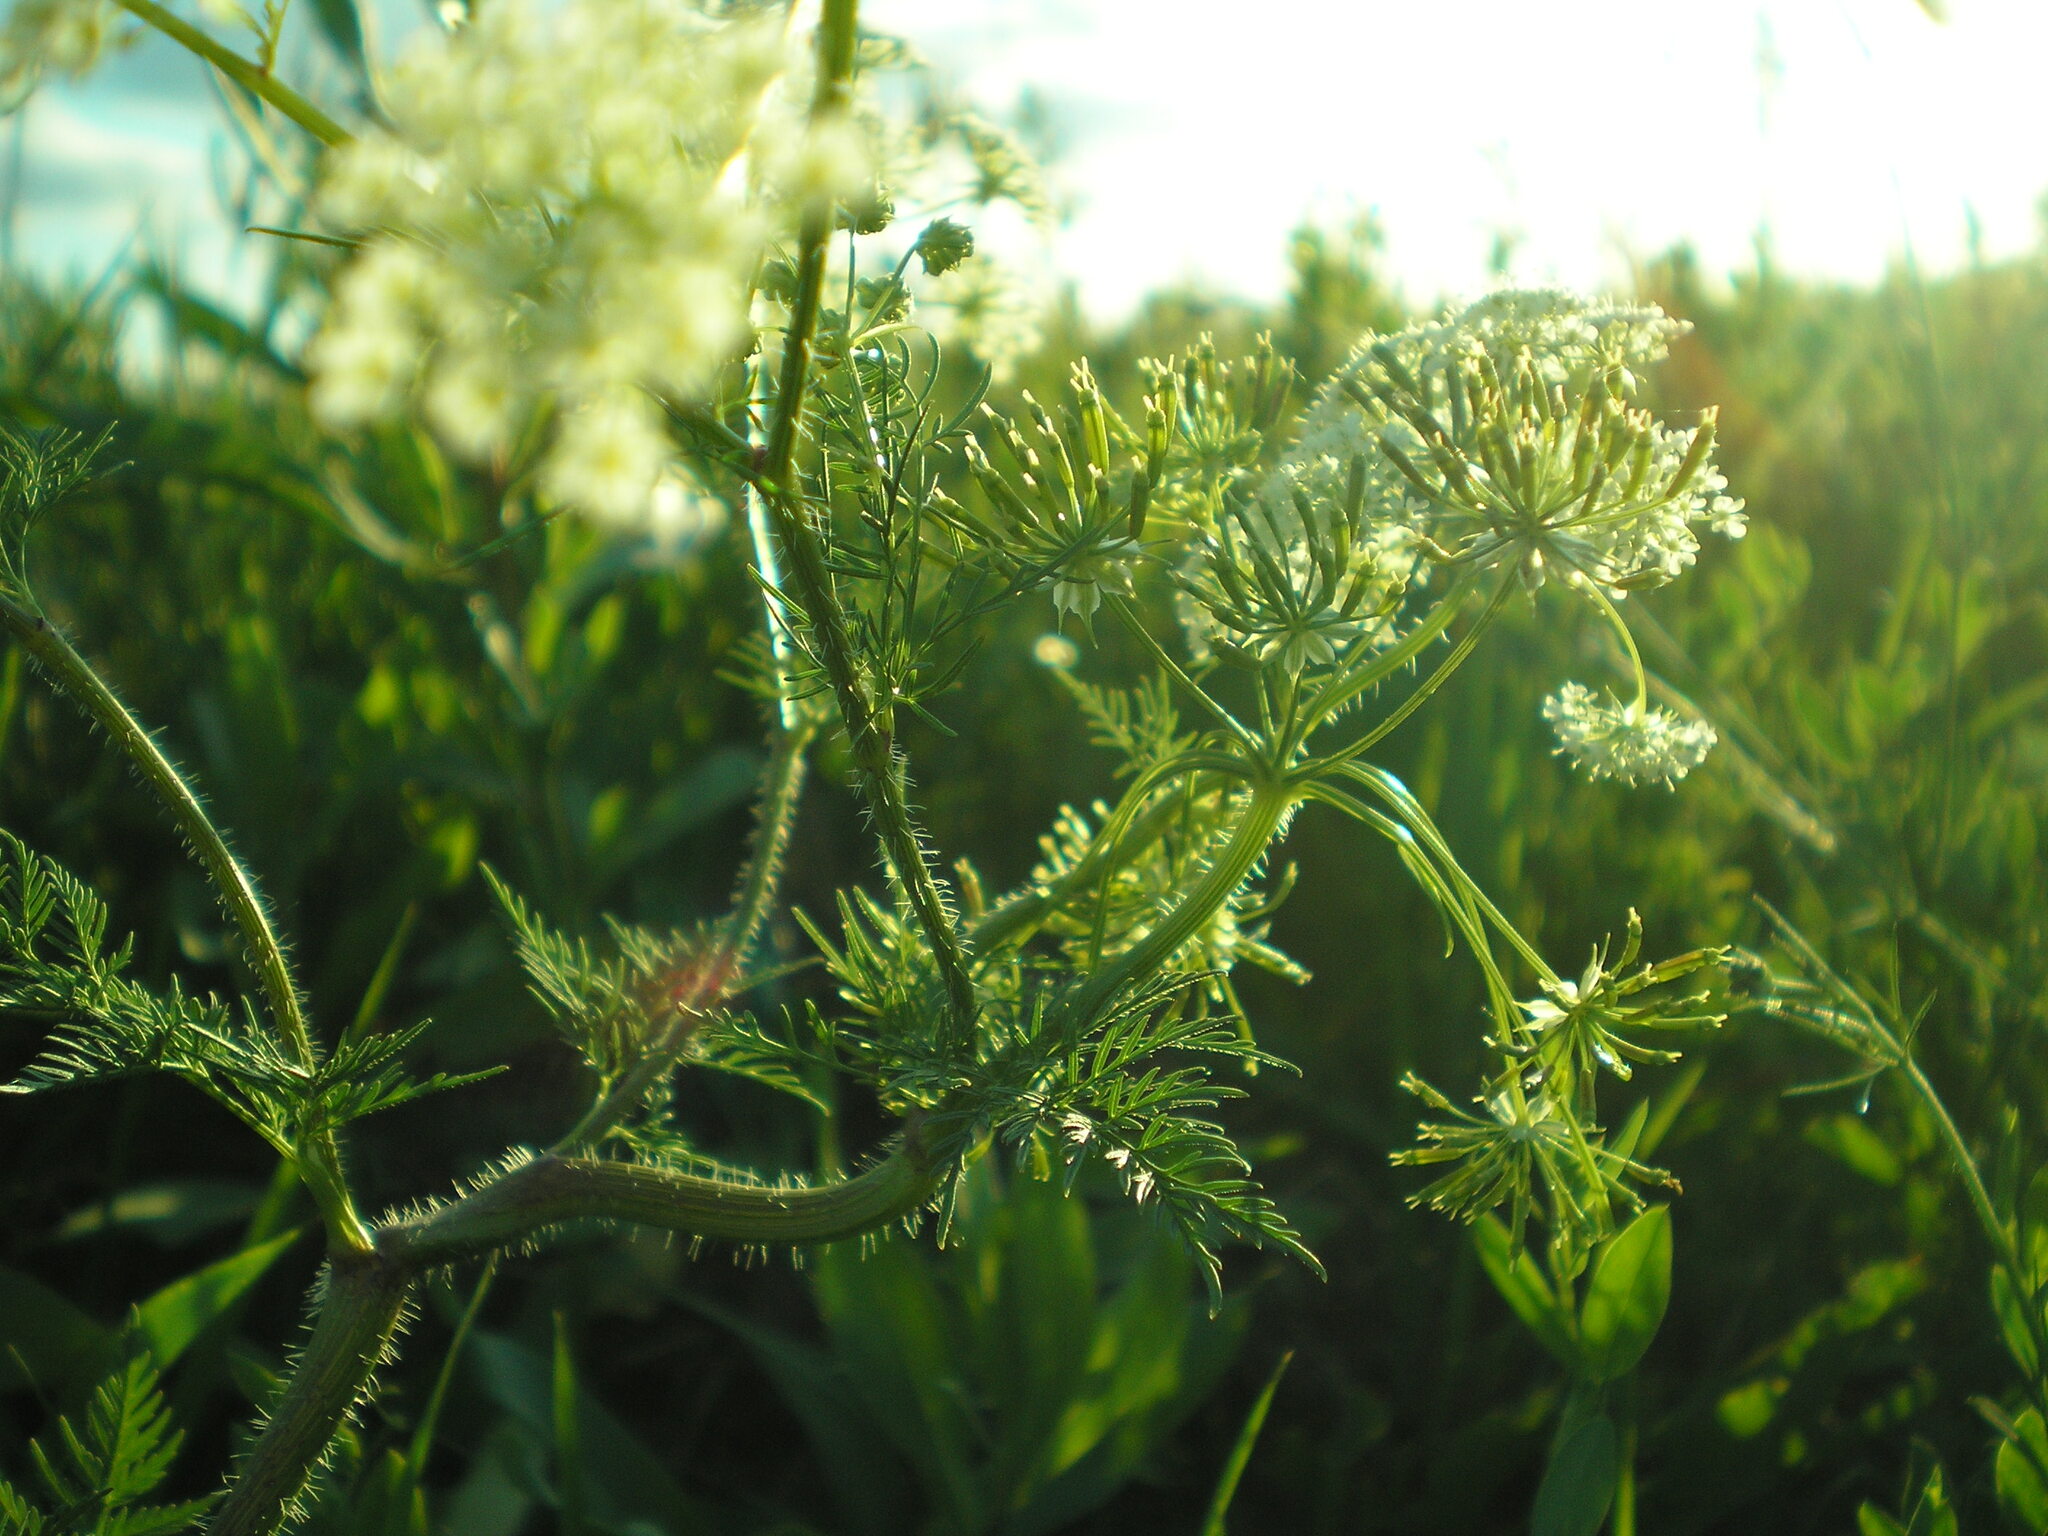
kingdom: Plantae
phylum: Tracheophyta
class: Magnoliopsida
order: Apiales
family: Apiaceae
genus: Chaerophyllum
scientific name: Chaerophyllum prescottii
